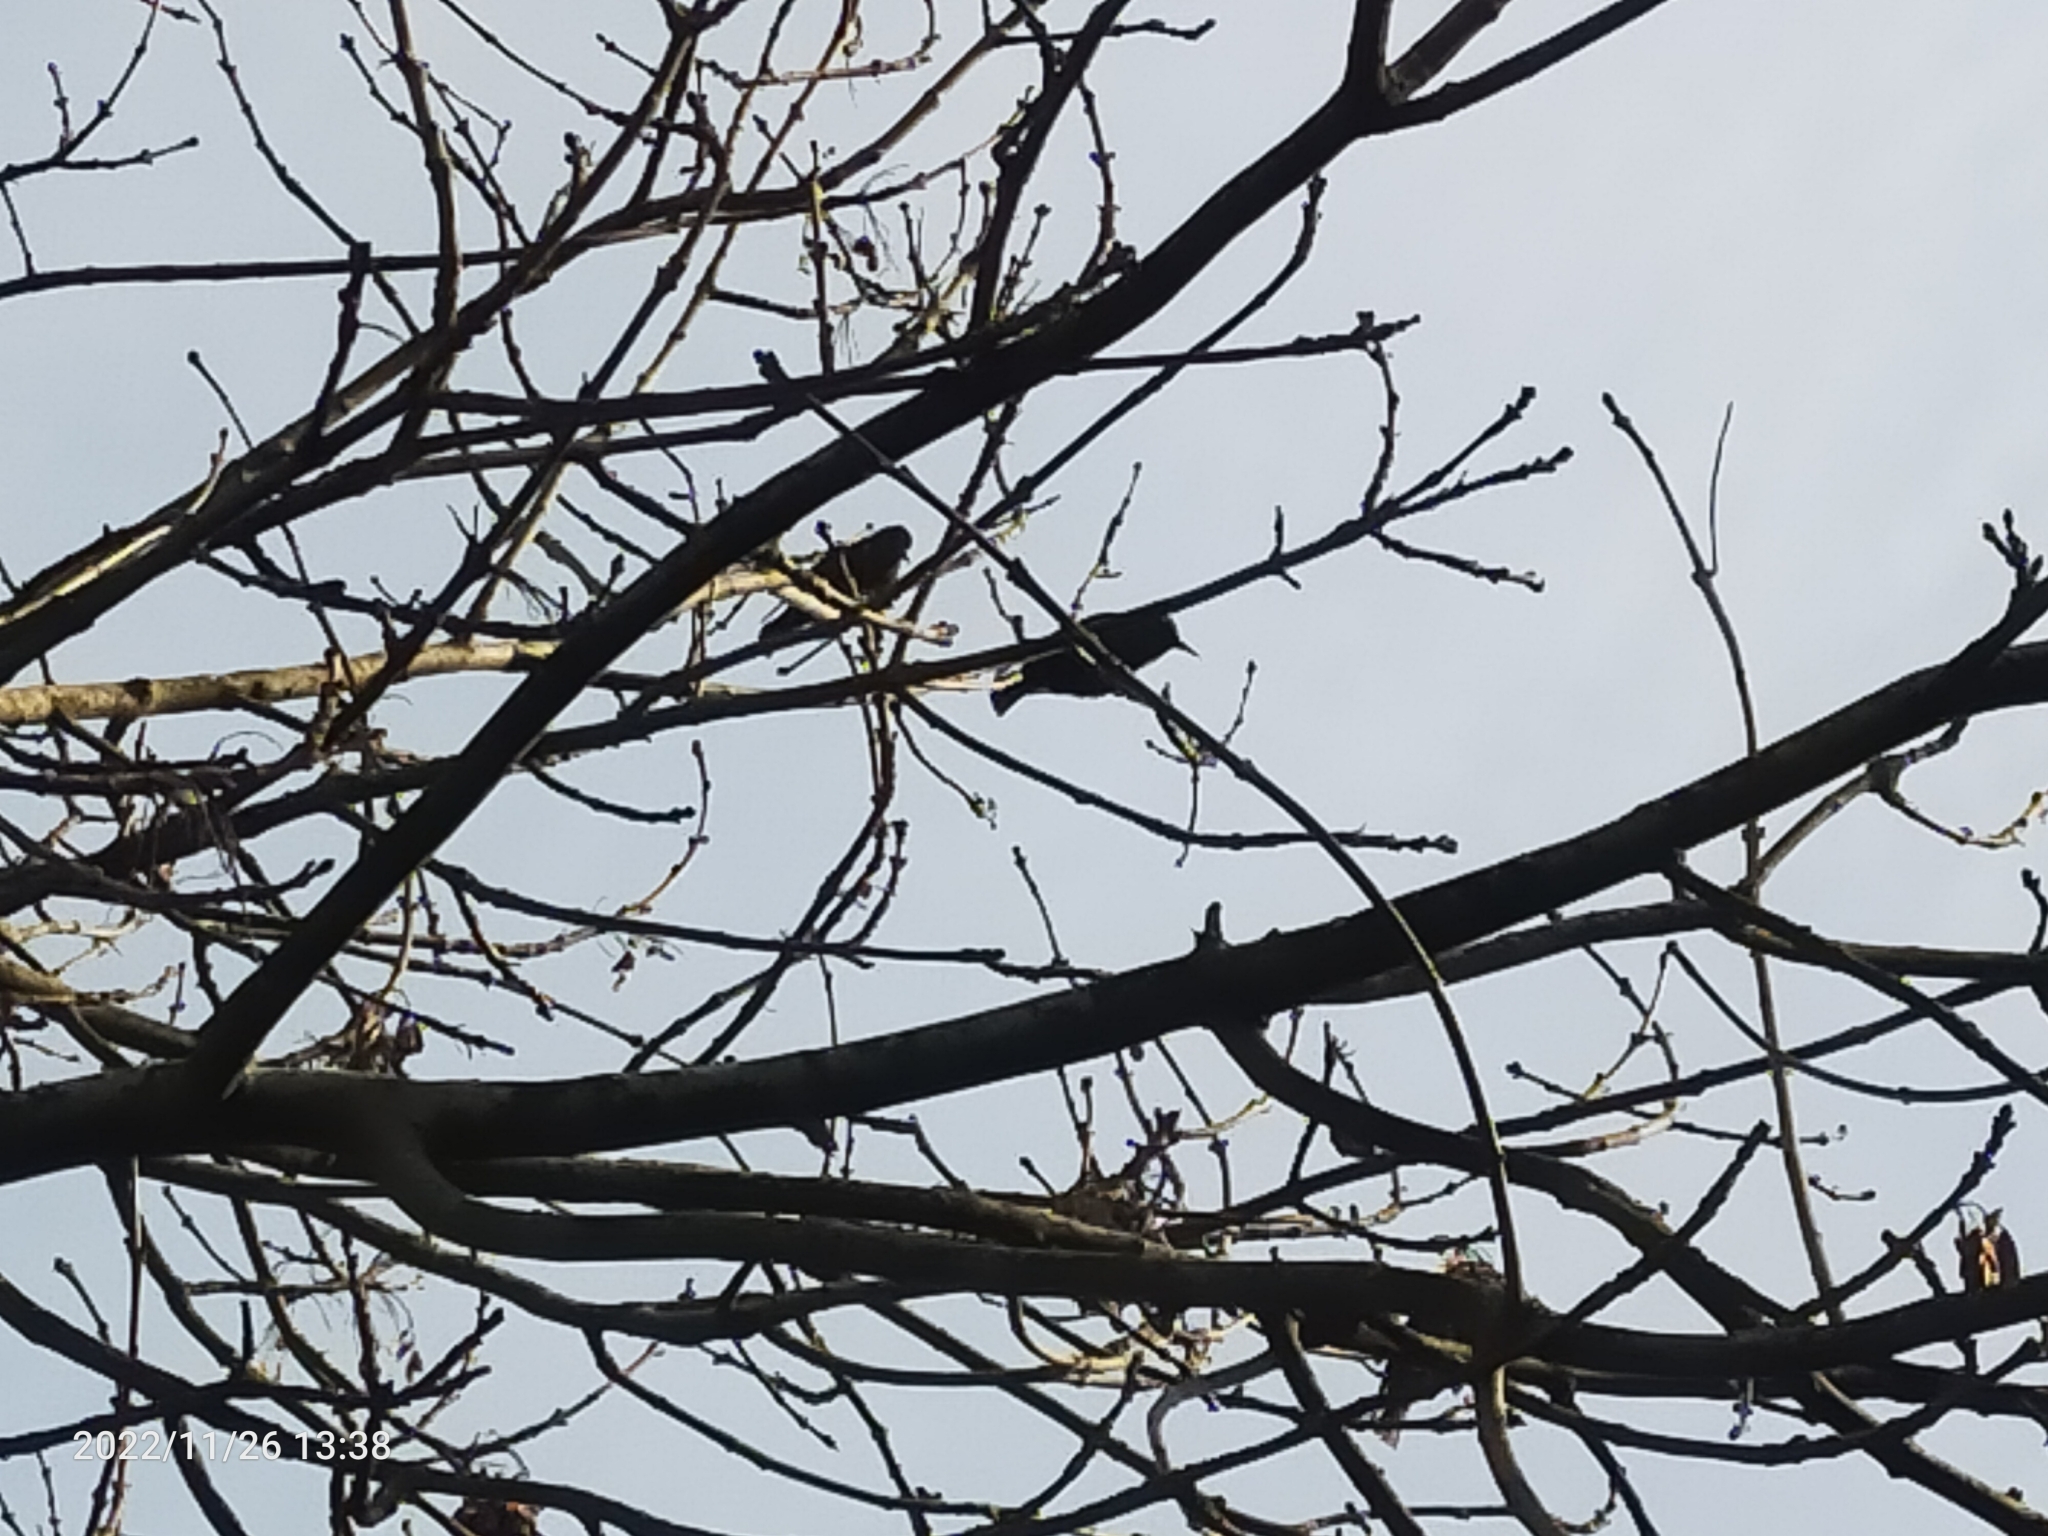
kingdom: Animalia
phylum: Chordata
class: Aves
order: Passeriformes
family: Sturnidae
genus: Sturnus
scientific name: Sturnus vulgaris
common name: Common starling
